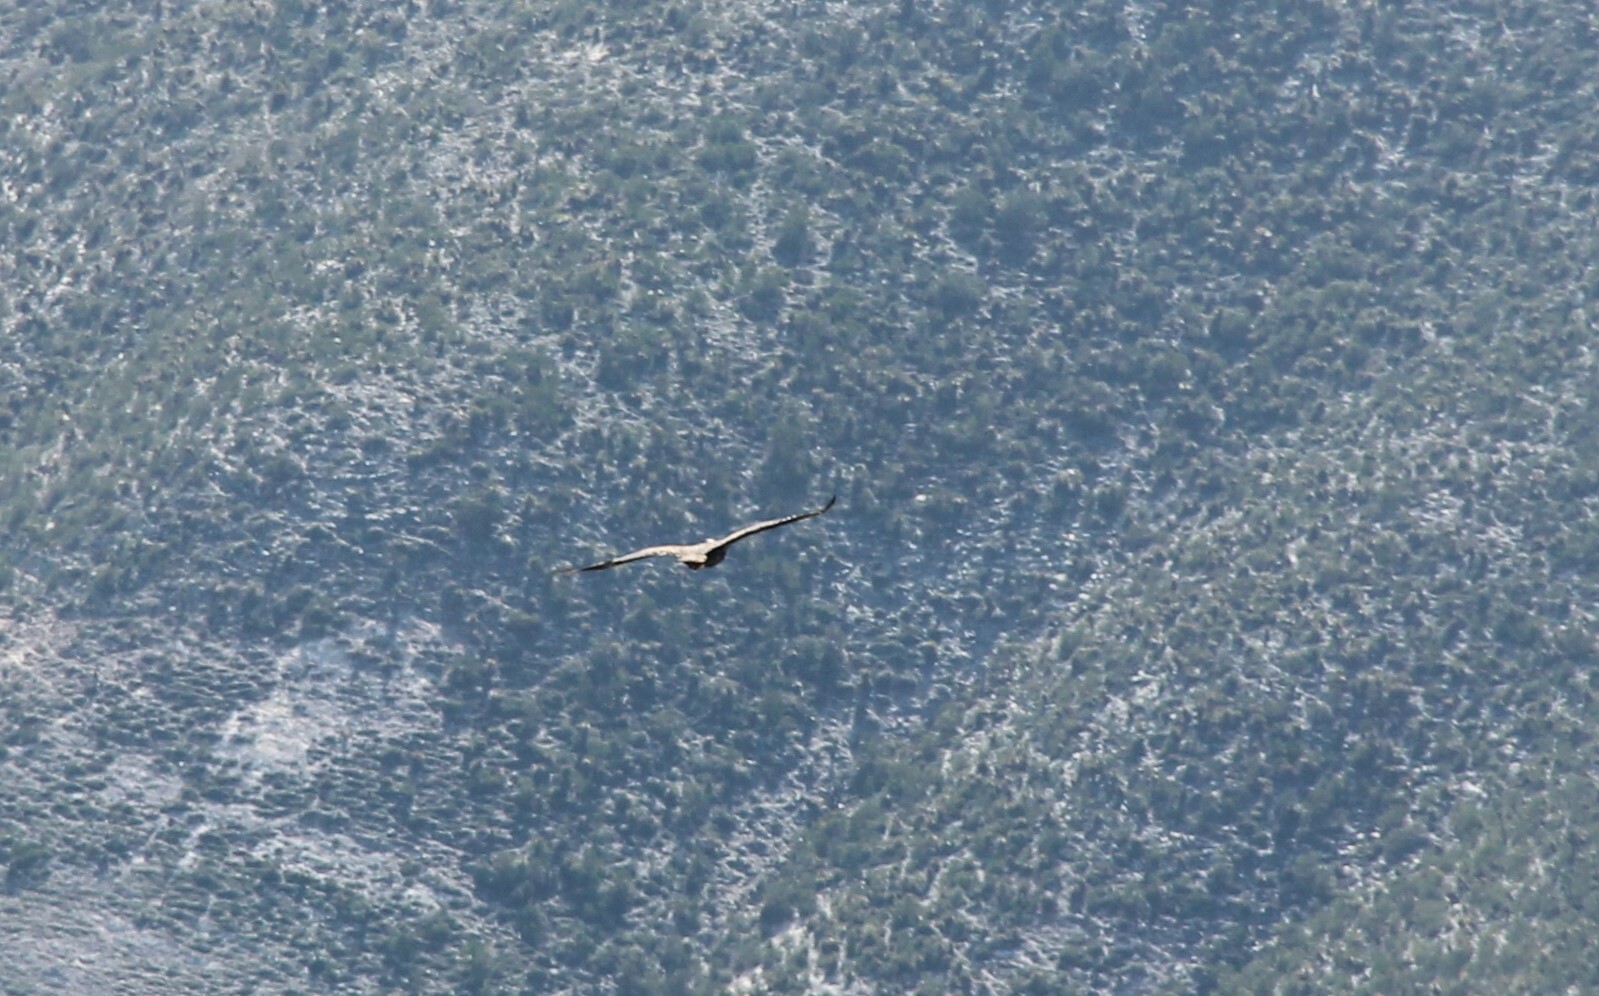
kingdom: Animalia
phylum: Chordata
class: Aves
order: Accipitriformes
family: Accipitridae
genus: Aquila
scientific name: Aquila chrysaetos
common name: Golden eagle
